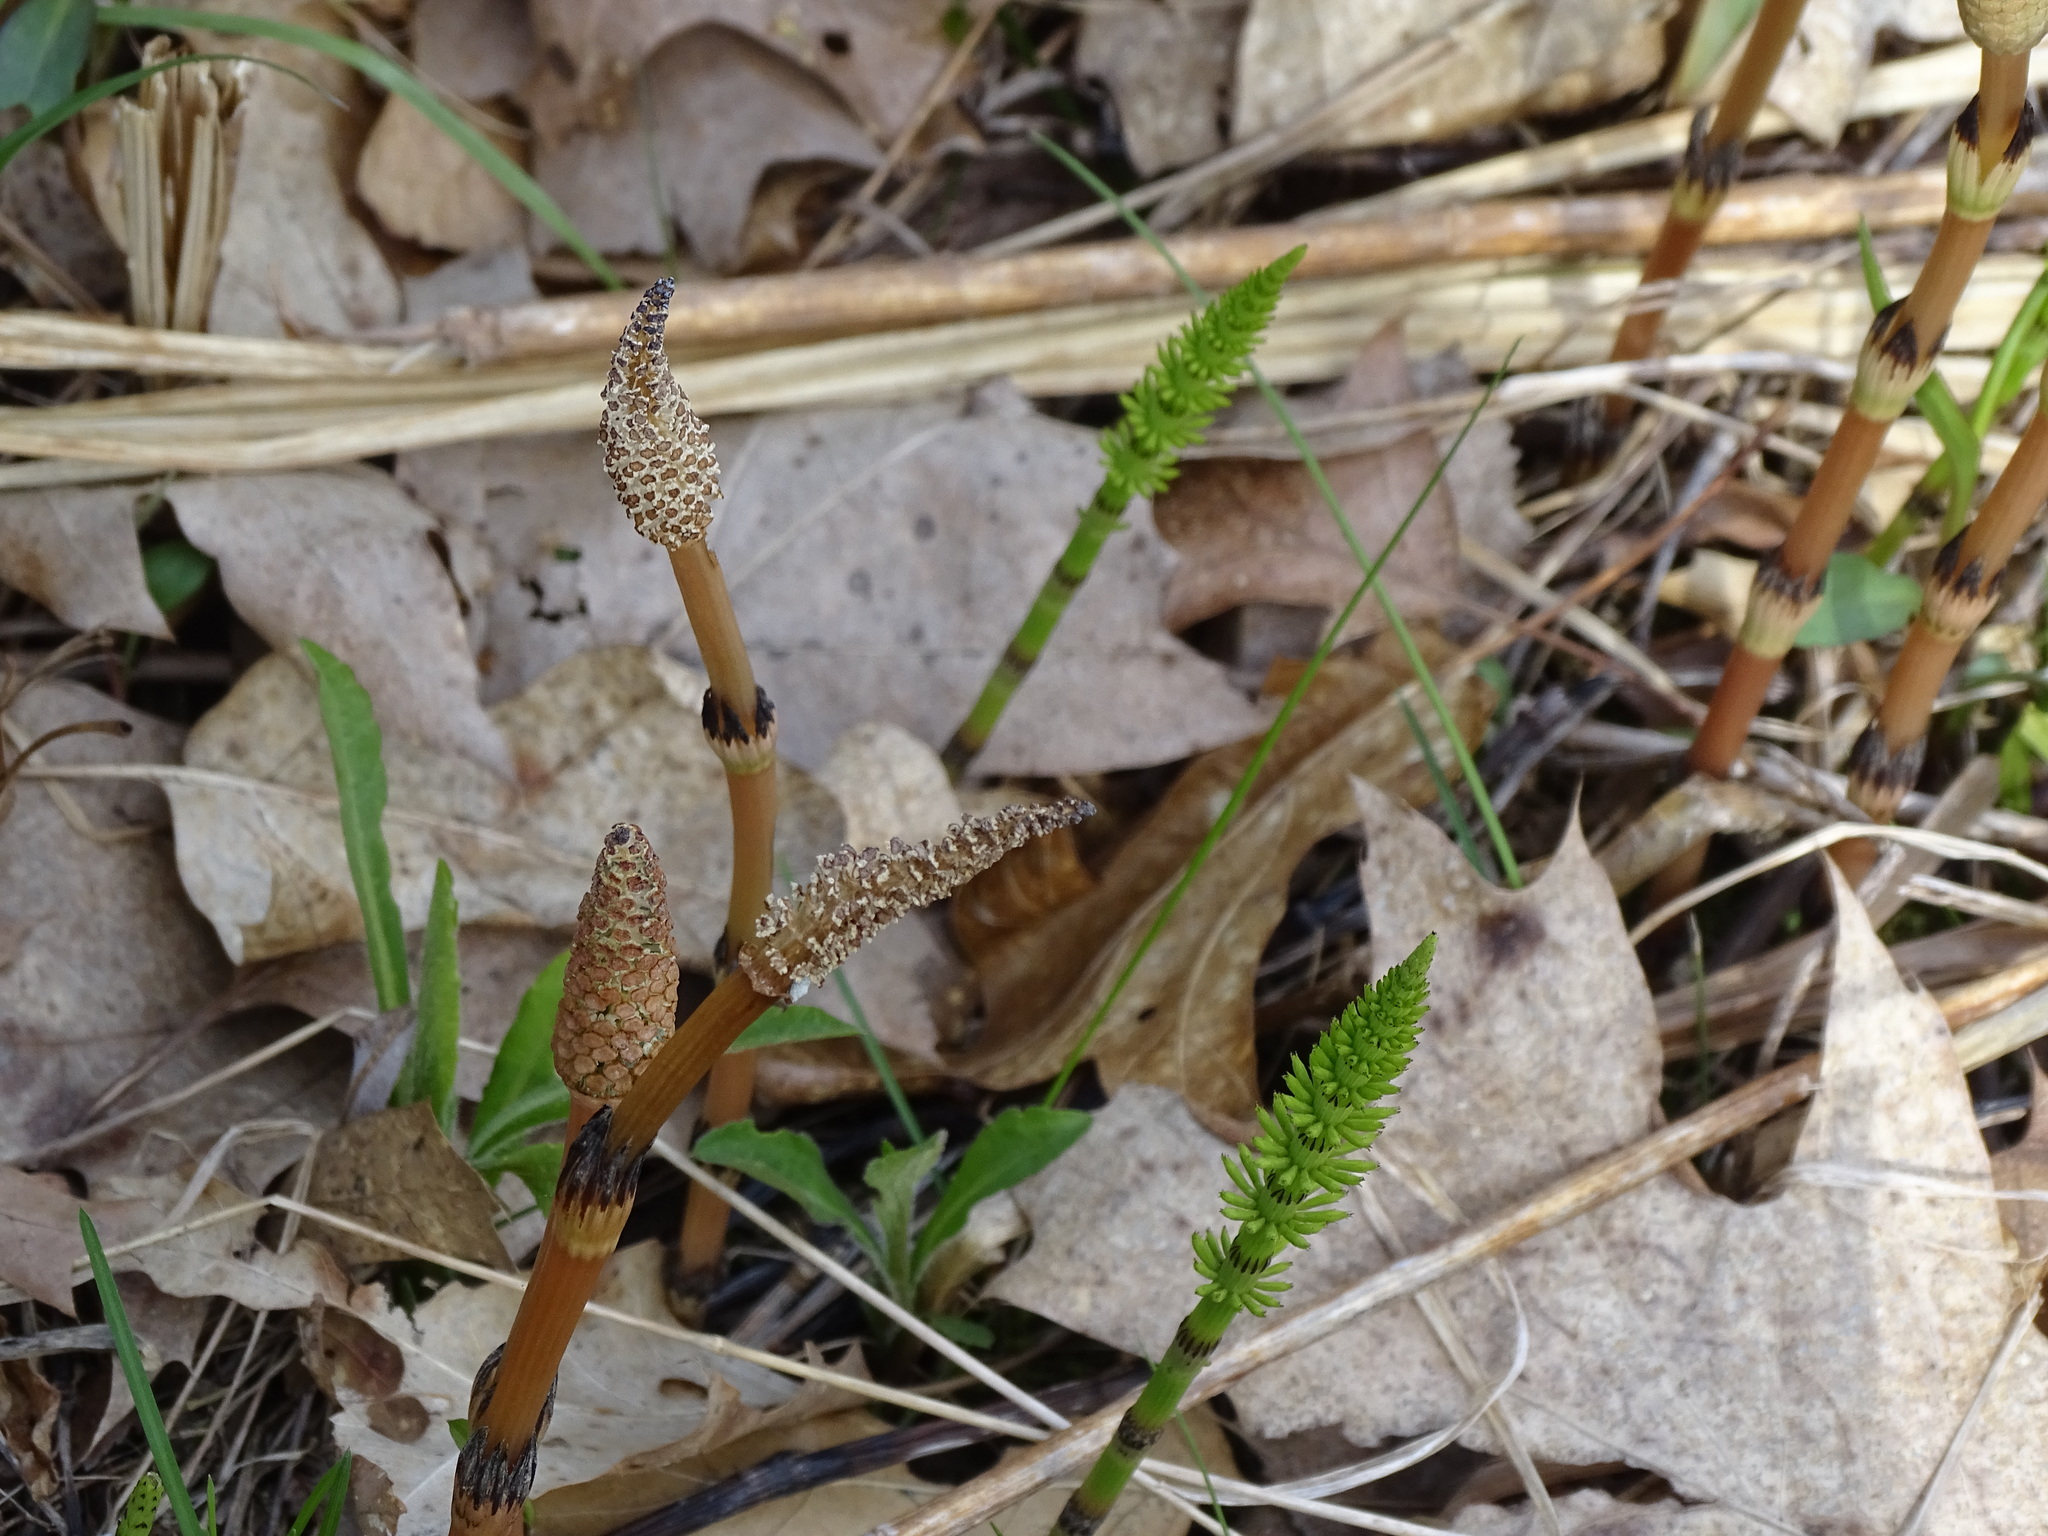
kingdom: Plantae
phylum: Tracheophyta
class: Polypodiopsida
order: Equisetales
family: Equisetaceae
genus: Equisetum
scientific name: Equisetum arvense
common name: Field horsetail
